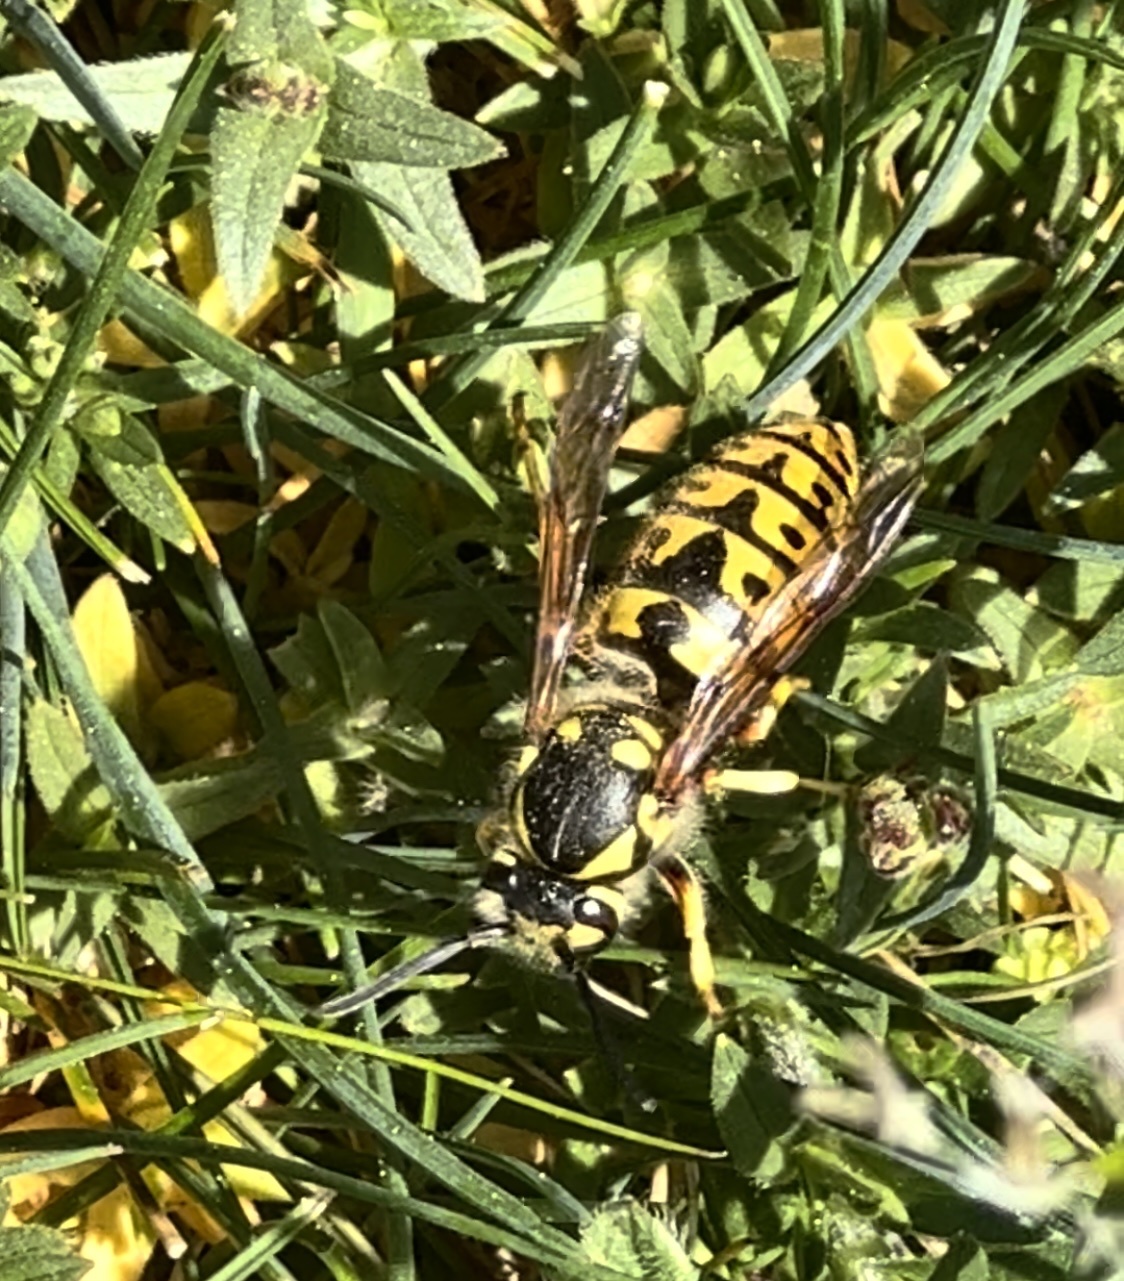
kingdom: Animalia
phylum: Arthropoda
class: Insecta
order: Hymenoptera
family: Vespidae
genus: Vespula
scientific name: Vespula germanica
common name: German wasp
